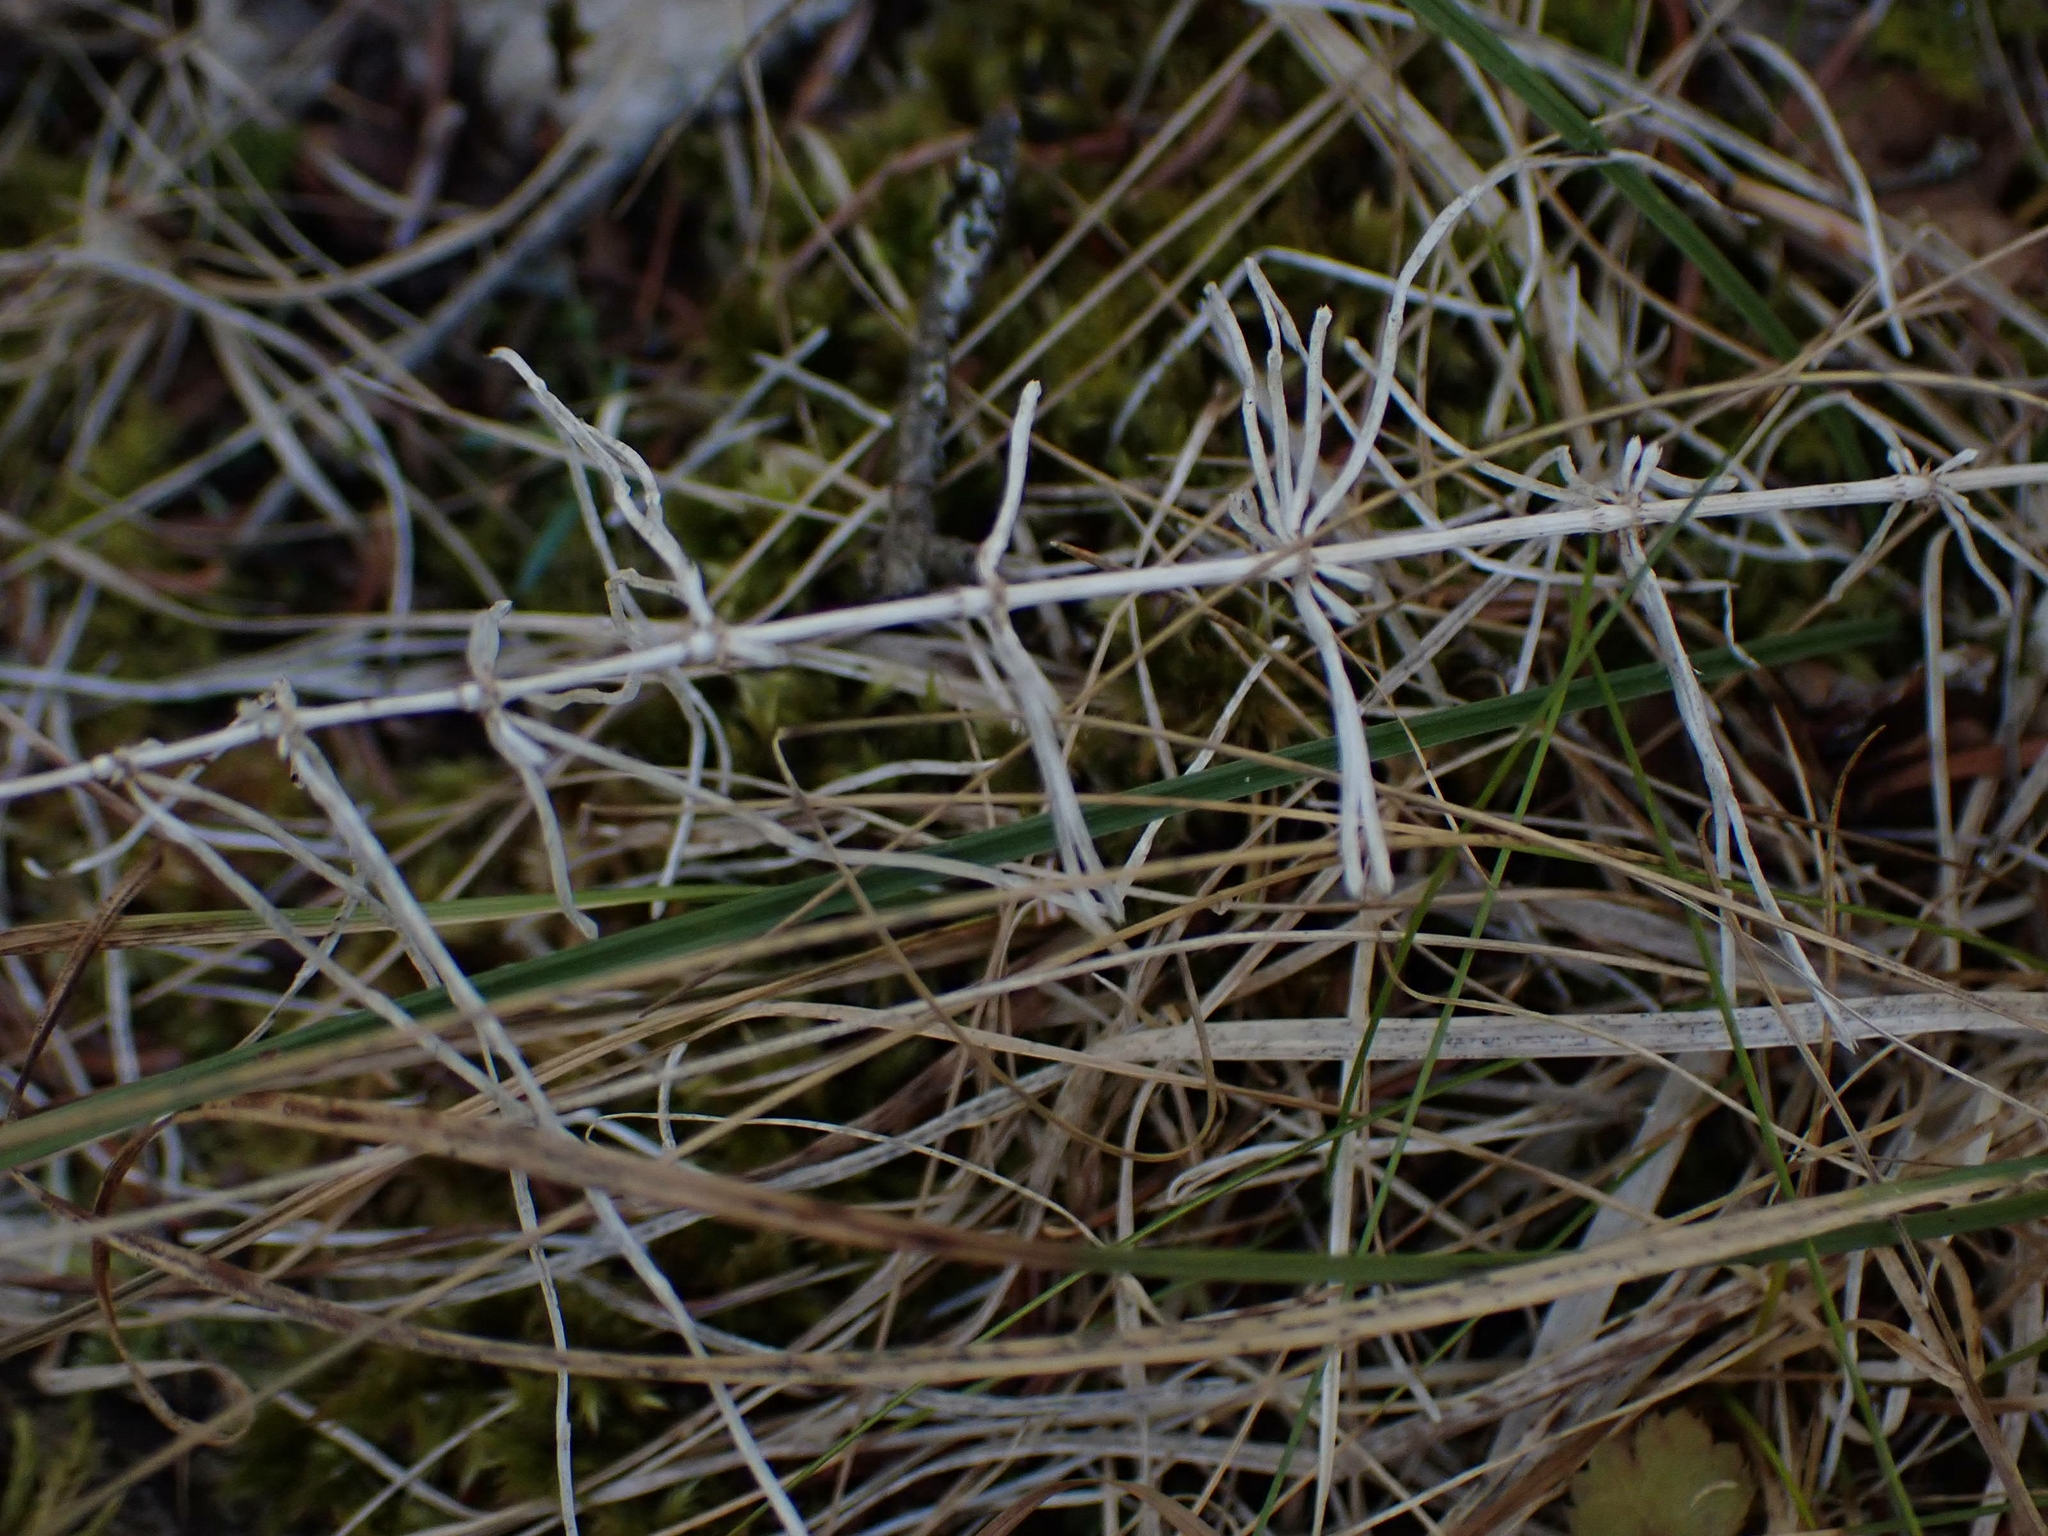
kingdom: Plantae
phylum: Tracheophyta
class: Polypodiopsida
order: Equisetales
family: Equisetaceae
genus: Equisetum
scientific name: Equisetum arvense
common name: Field horsetail
